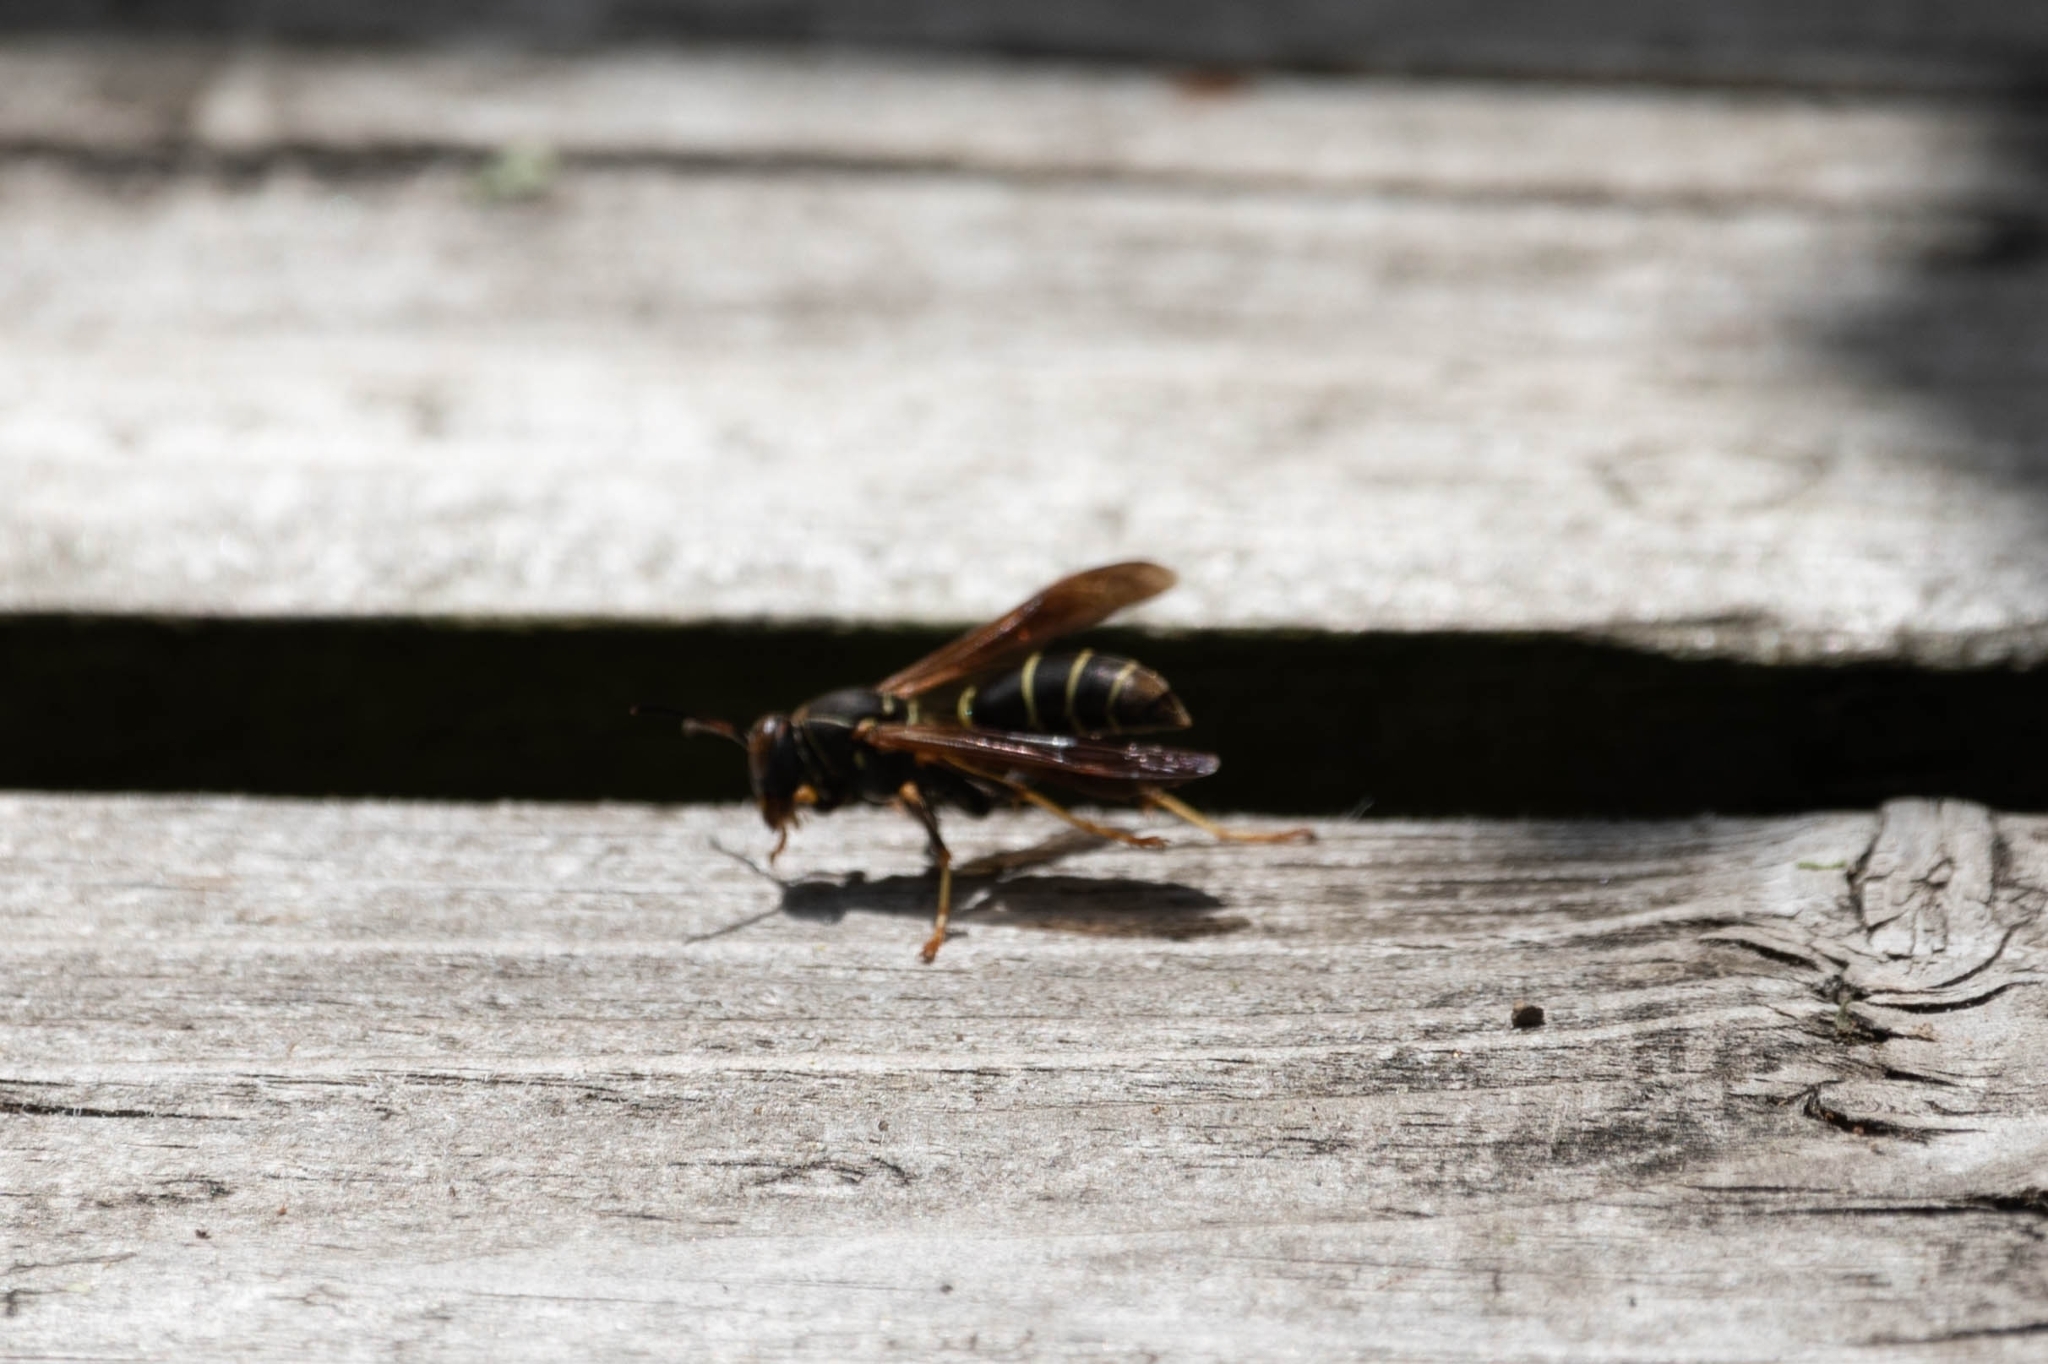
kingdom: Animalia
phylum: Arthropoda
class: Insecta
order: Hymenoptera
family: Eumenidae
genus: Polistes
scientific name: Polistes fuscatus
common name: Dark paper wasp
